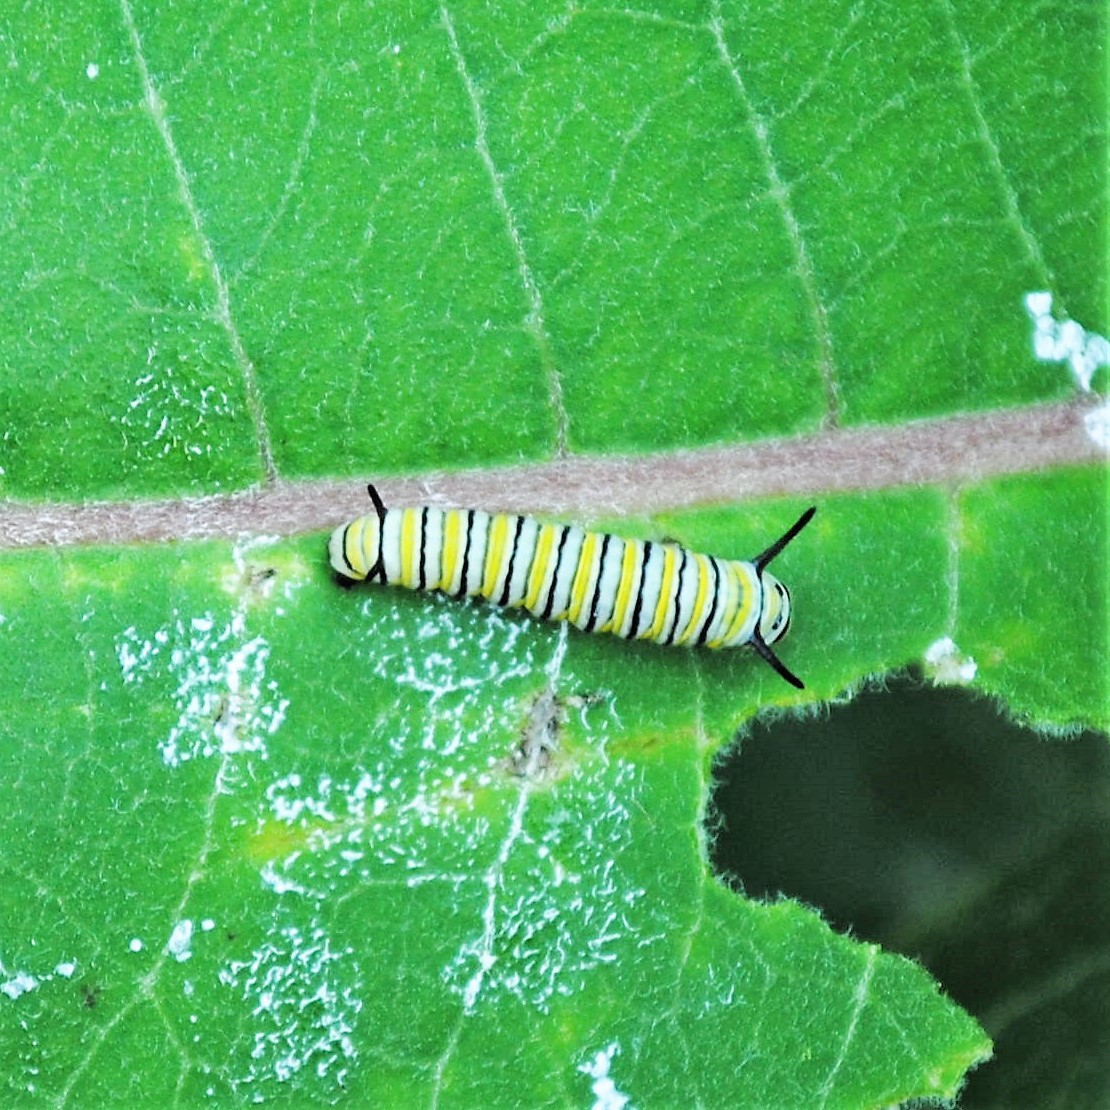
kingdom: Animalia
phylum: Arthropoda
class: Insecta
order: Lepidoptera
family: Nymphalidae
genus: Danaus
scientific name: Danaus plexippus
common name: Monarch
